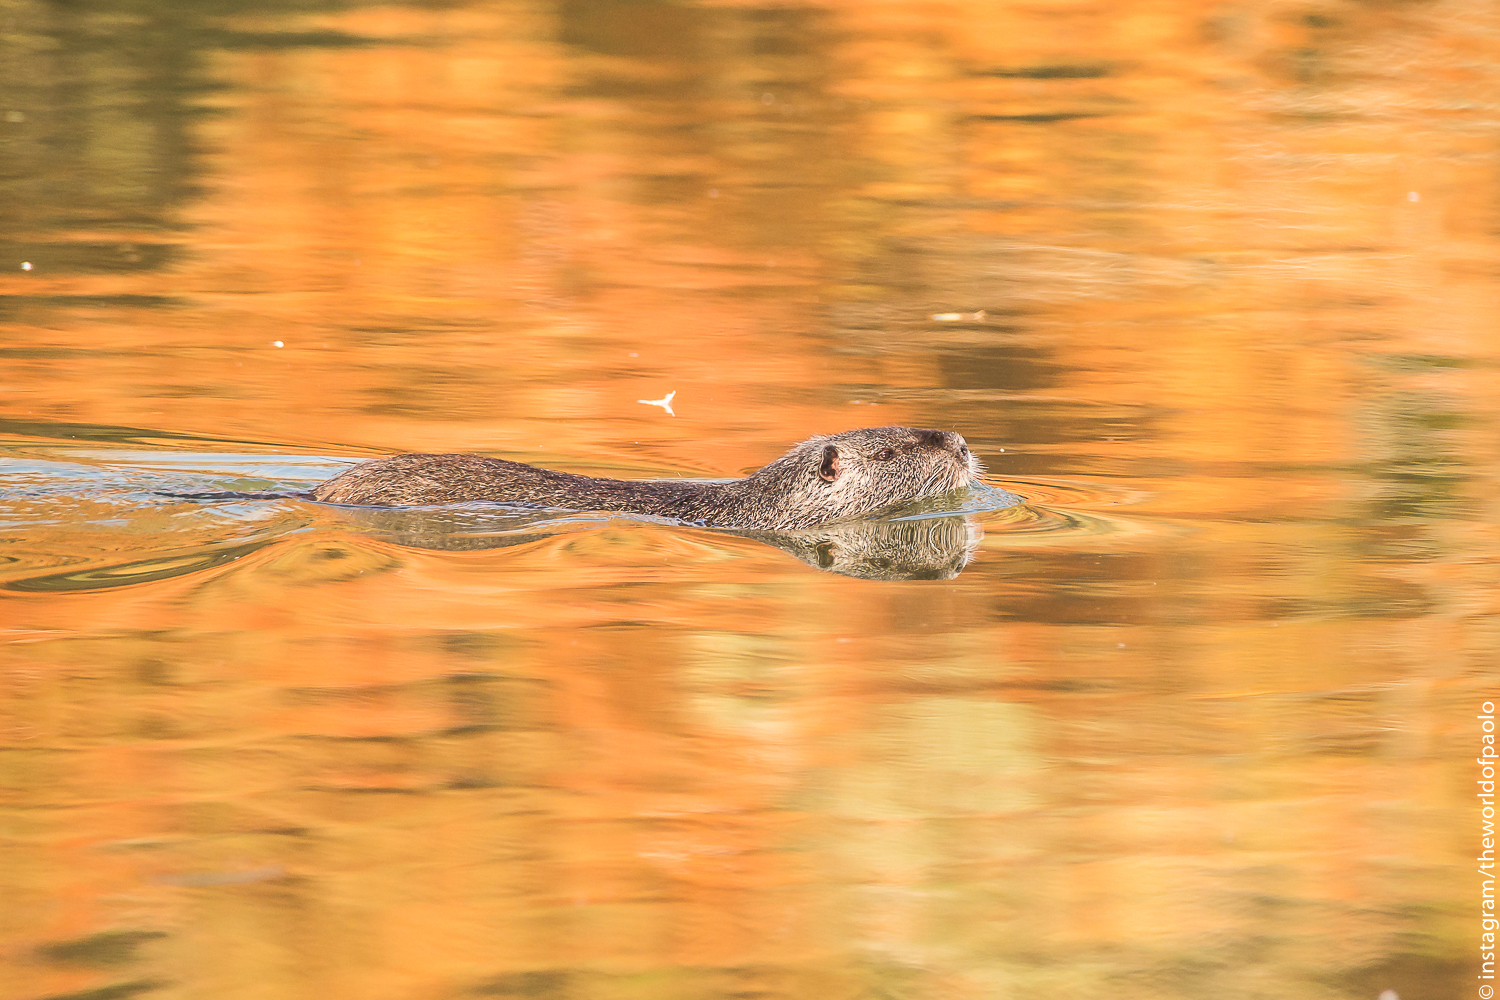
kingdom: Animalia
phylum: Chordata
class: Mammalia
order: Rodentia
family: Myocastoridae
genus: Myocastor
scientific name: Myocastor coypus
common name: Coypu
